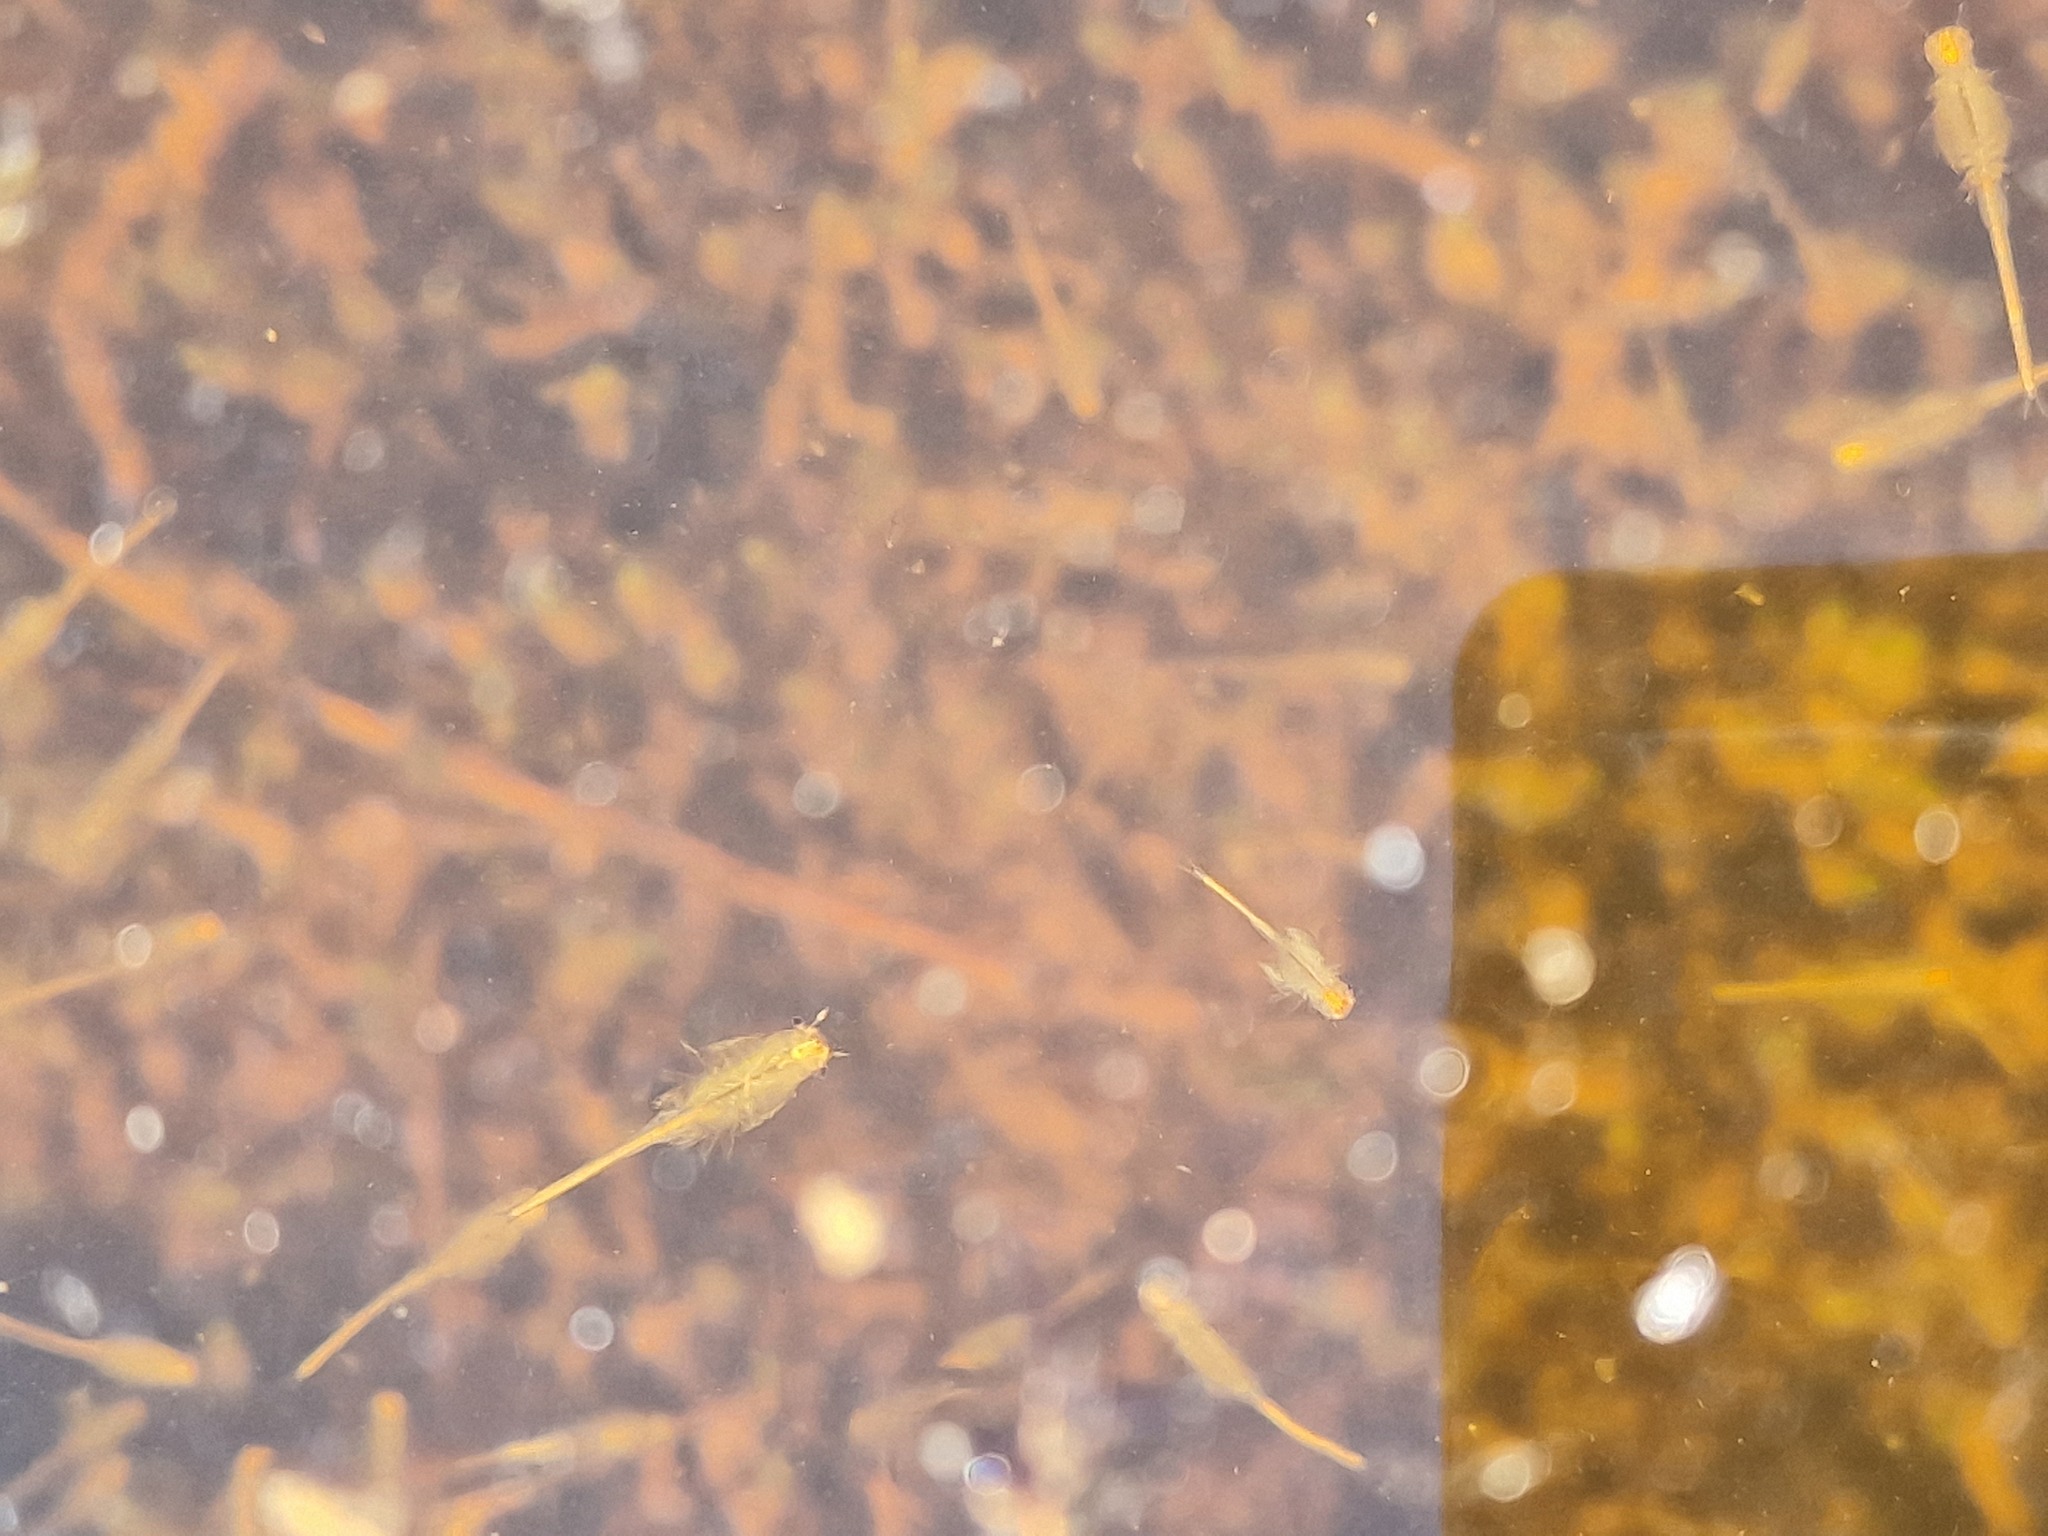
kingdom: Animalia
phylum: Arthropoda
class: Branchiopoda
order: Anostraca
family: Branchinectidae
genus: Branchinecta
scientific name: Branchinecta paludosa
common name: Circumpolar fairy shrimp
